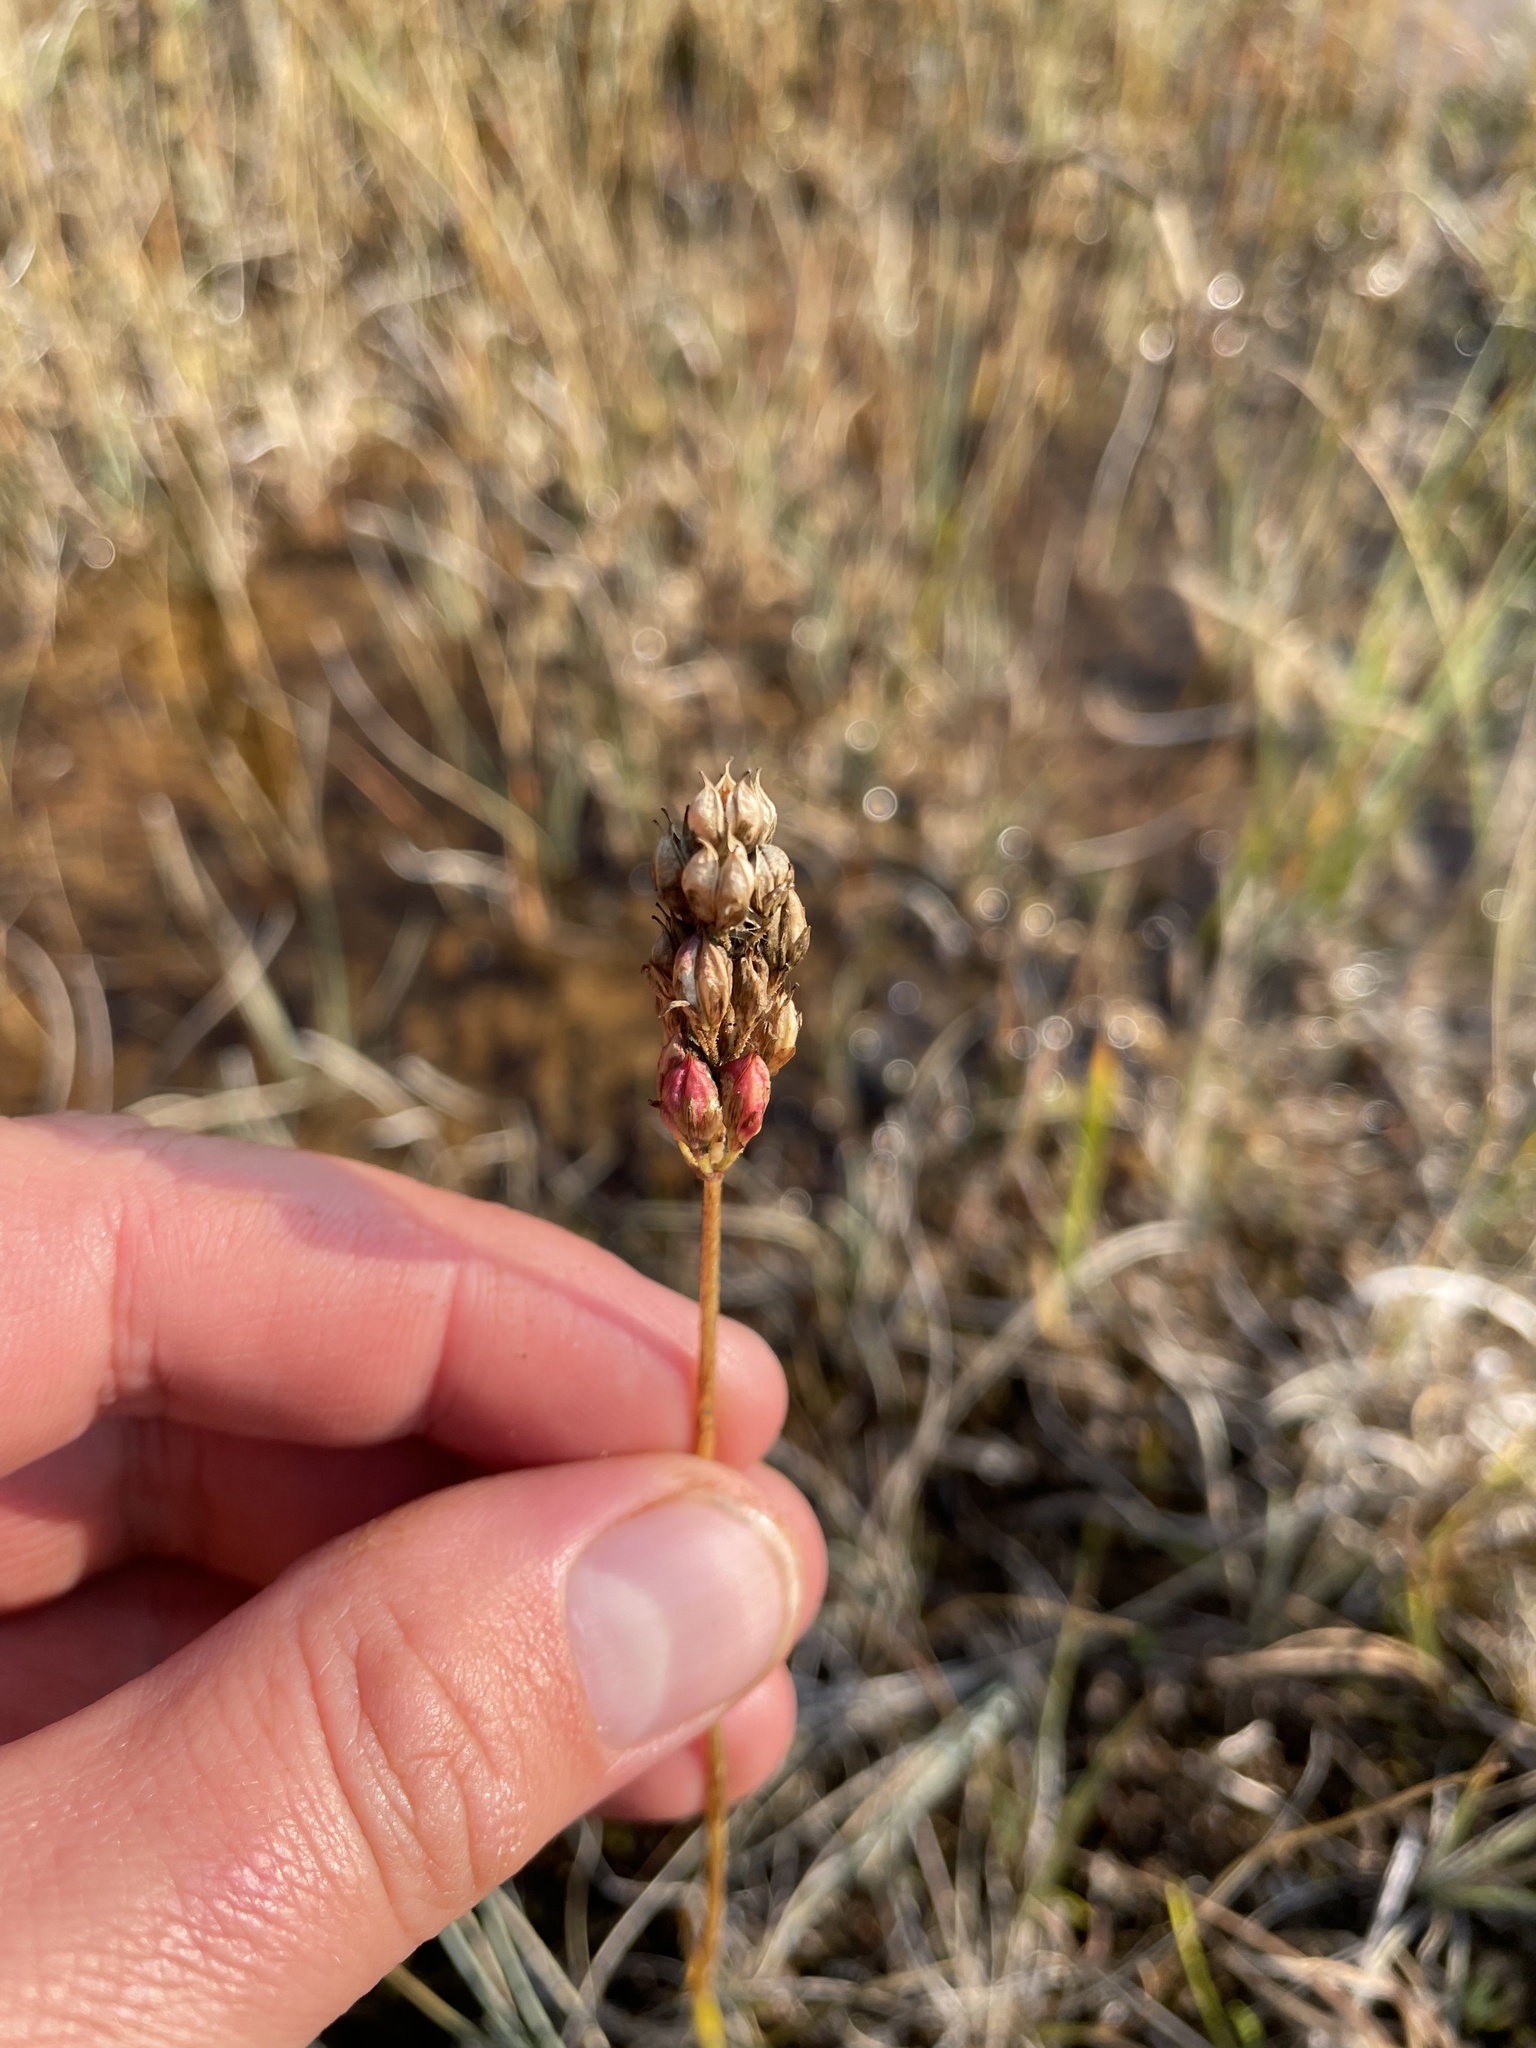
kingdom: Plantae
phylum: Tracheophyta
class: Liliopsida
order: Alismatales
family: Tofieldiaceae
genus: Triantha
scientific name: Triantha glutinosa
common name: Glutinous tofieldia
